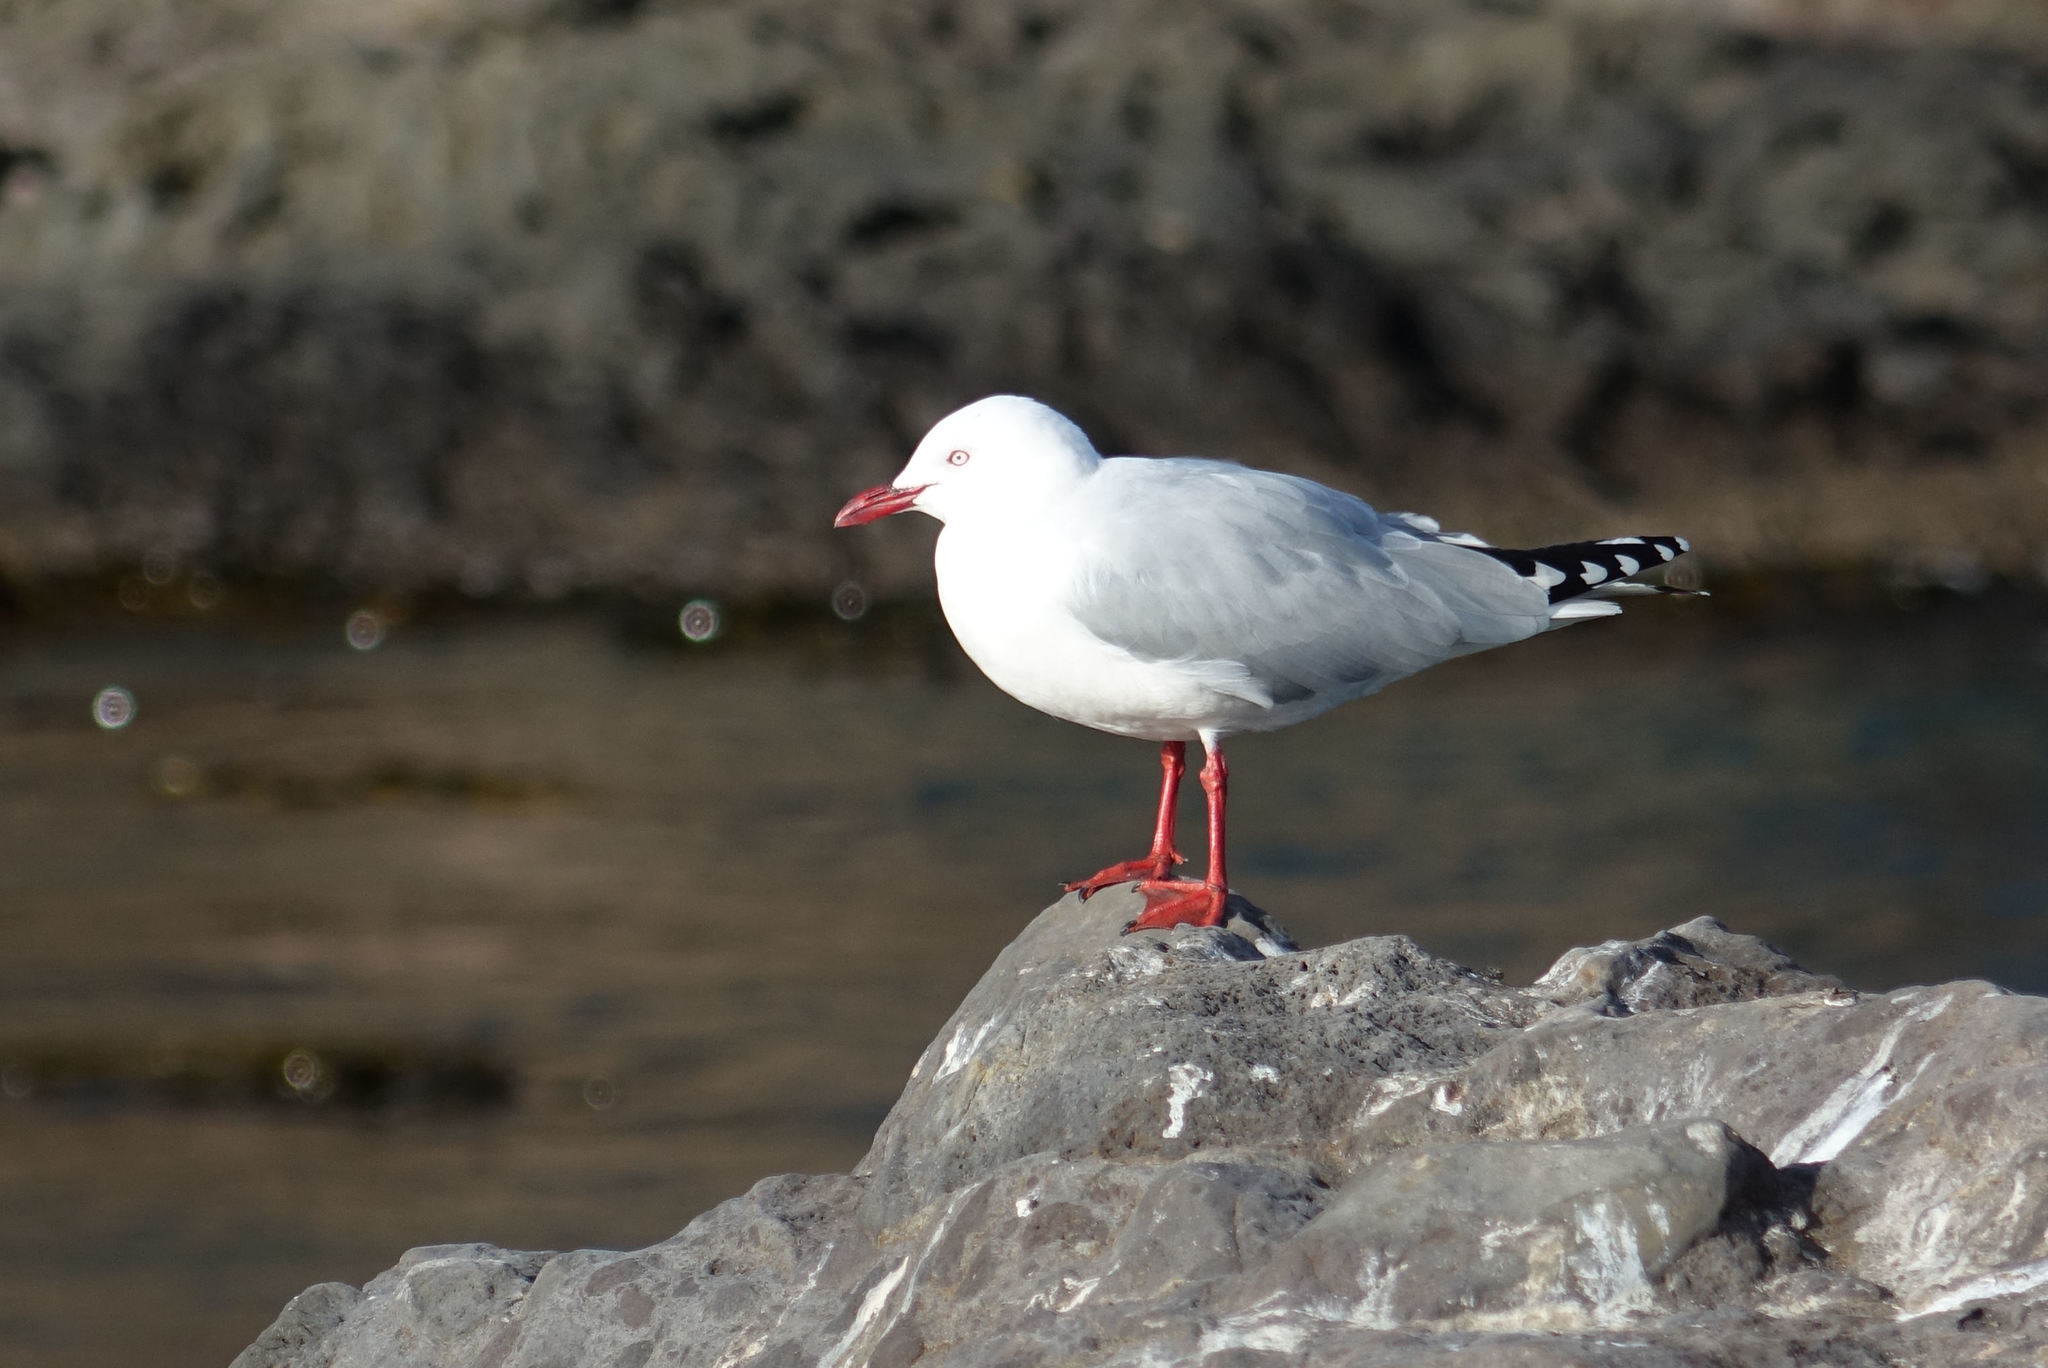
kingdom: Animalia
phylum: Chordata
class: Aves
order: Charadriiformes
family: Laridae
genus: Chroicocephalus
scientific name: Chroicocephalus novaehollandiae
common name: Silver gull
